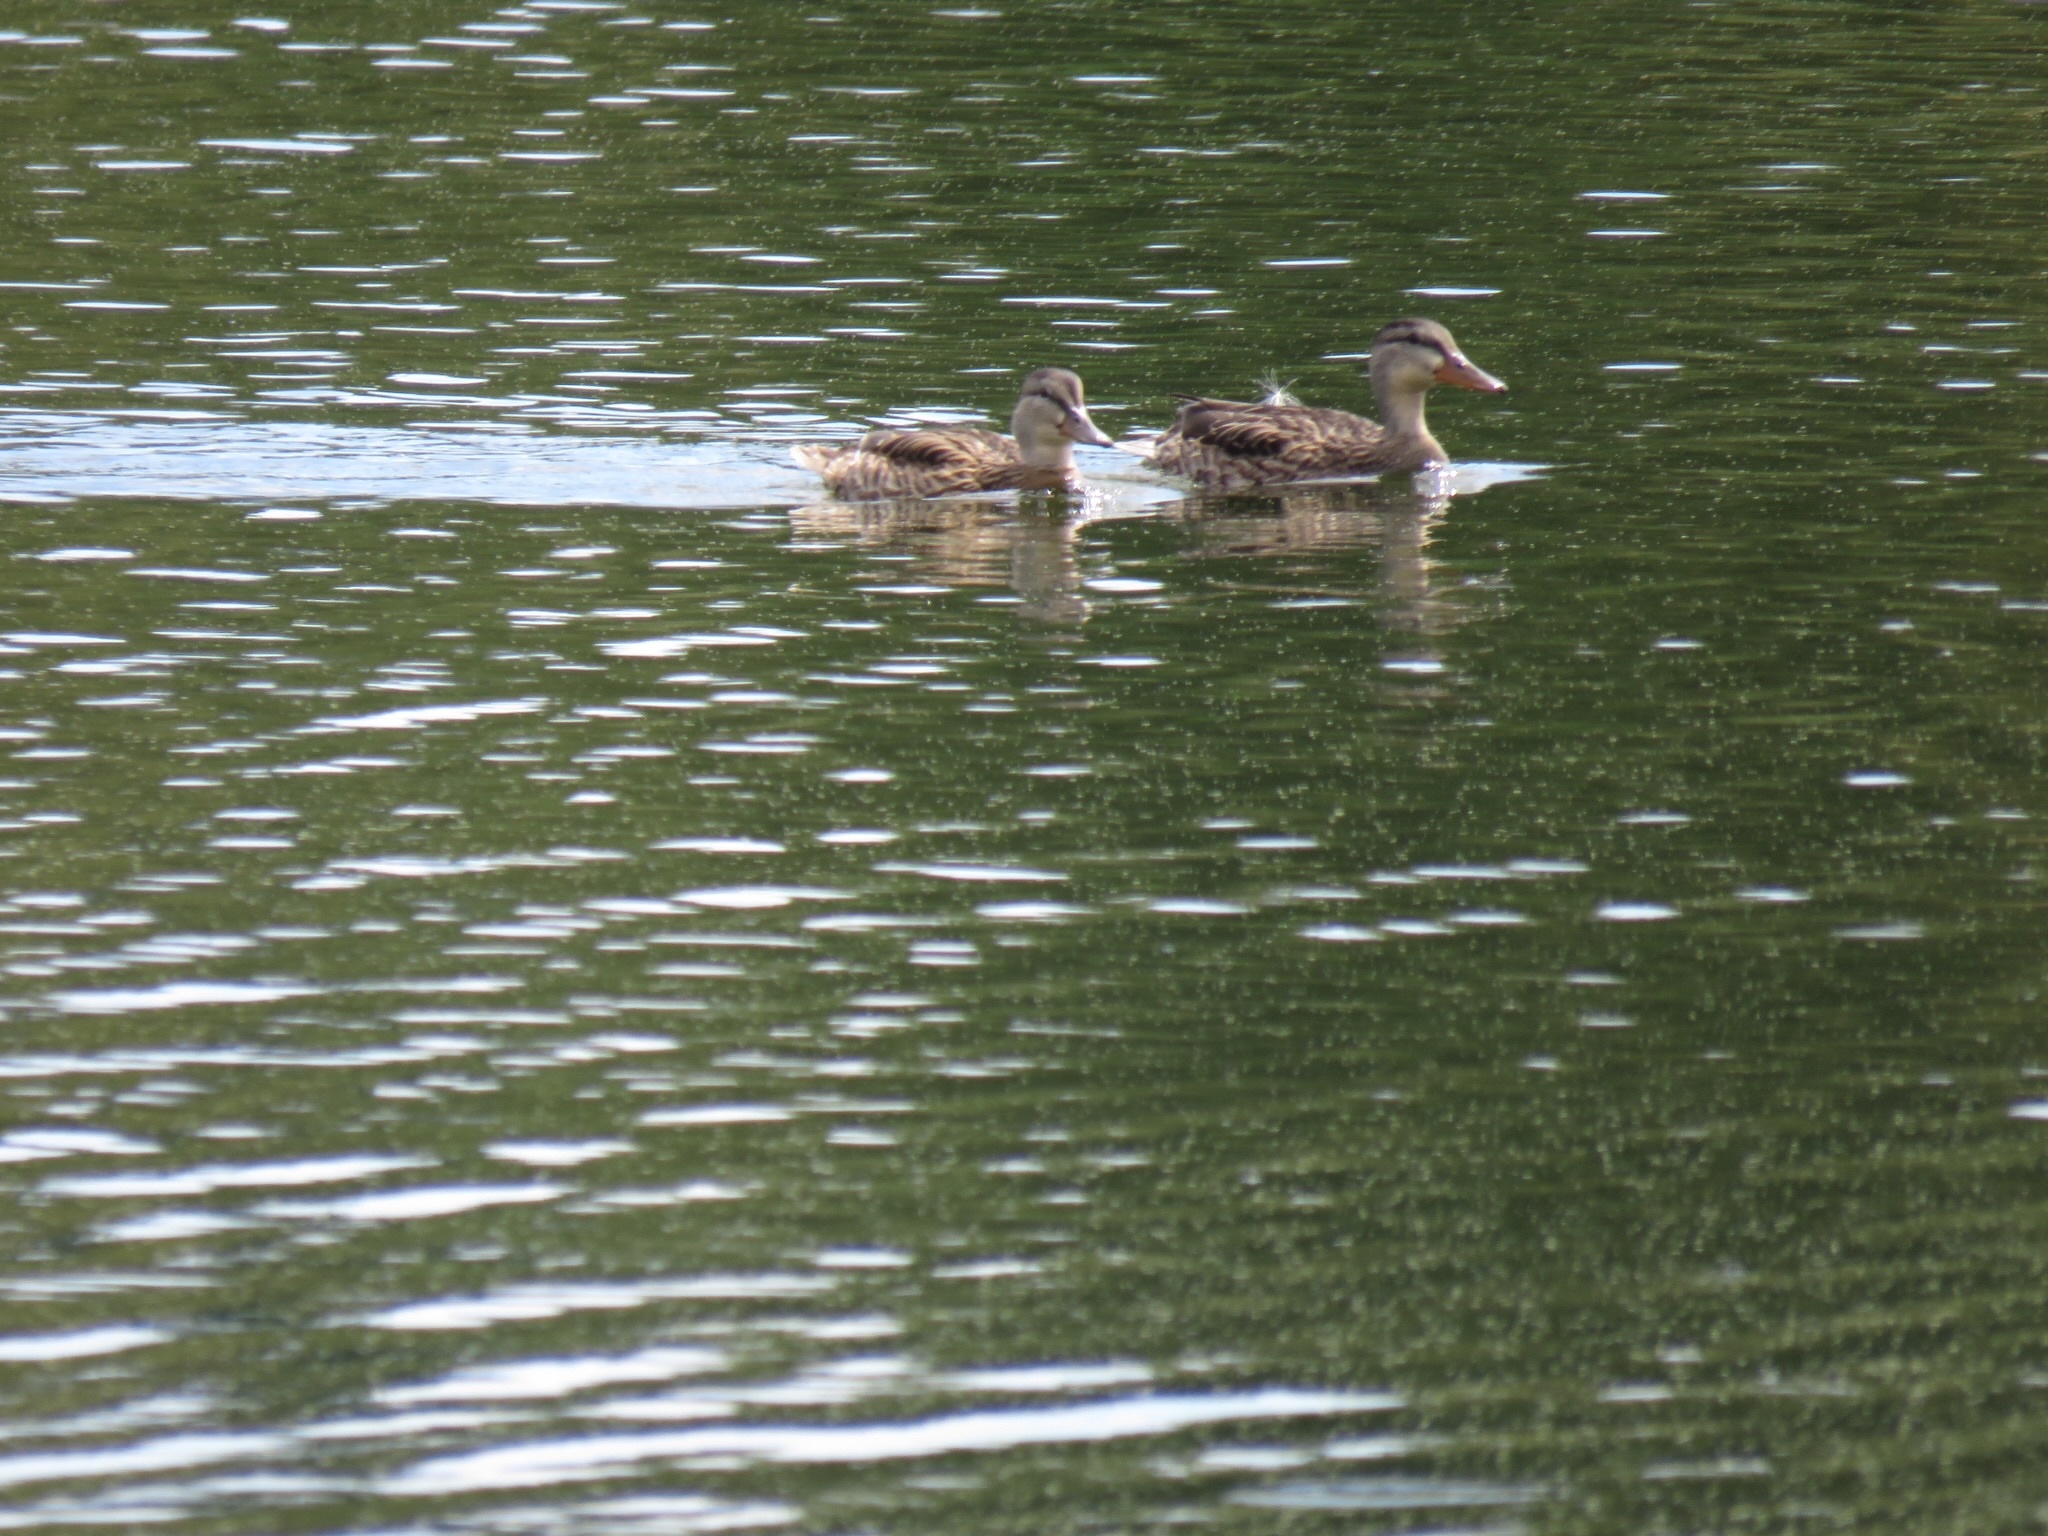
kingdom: Animalia
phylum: Chordata
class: Aves
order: Anseriformes
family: Anatidae
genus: Anas
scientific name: Anas platyrhynchos
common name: Mallard
